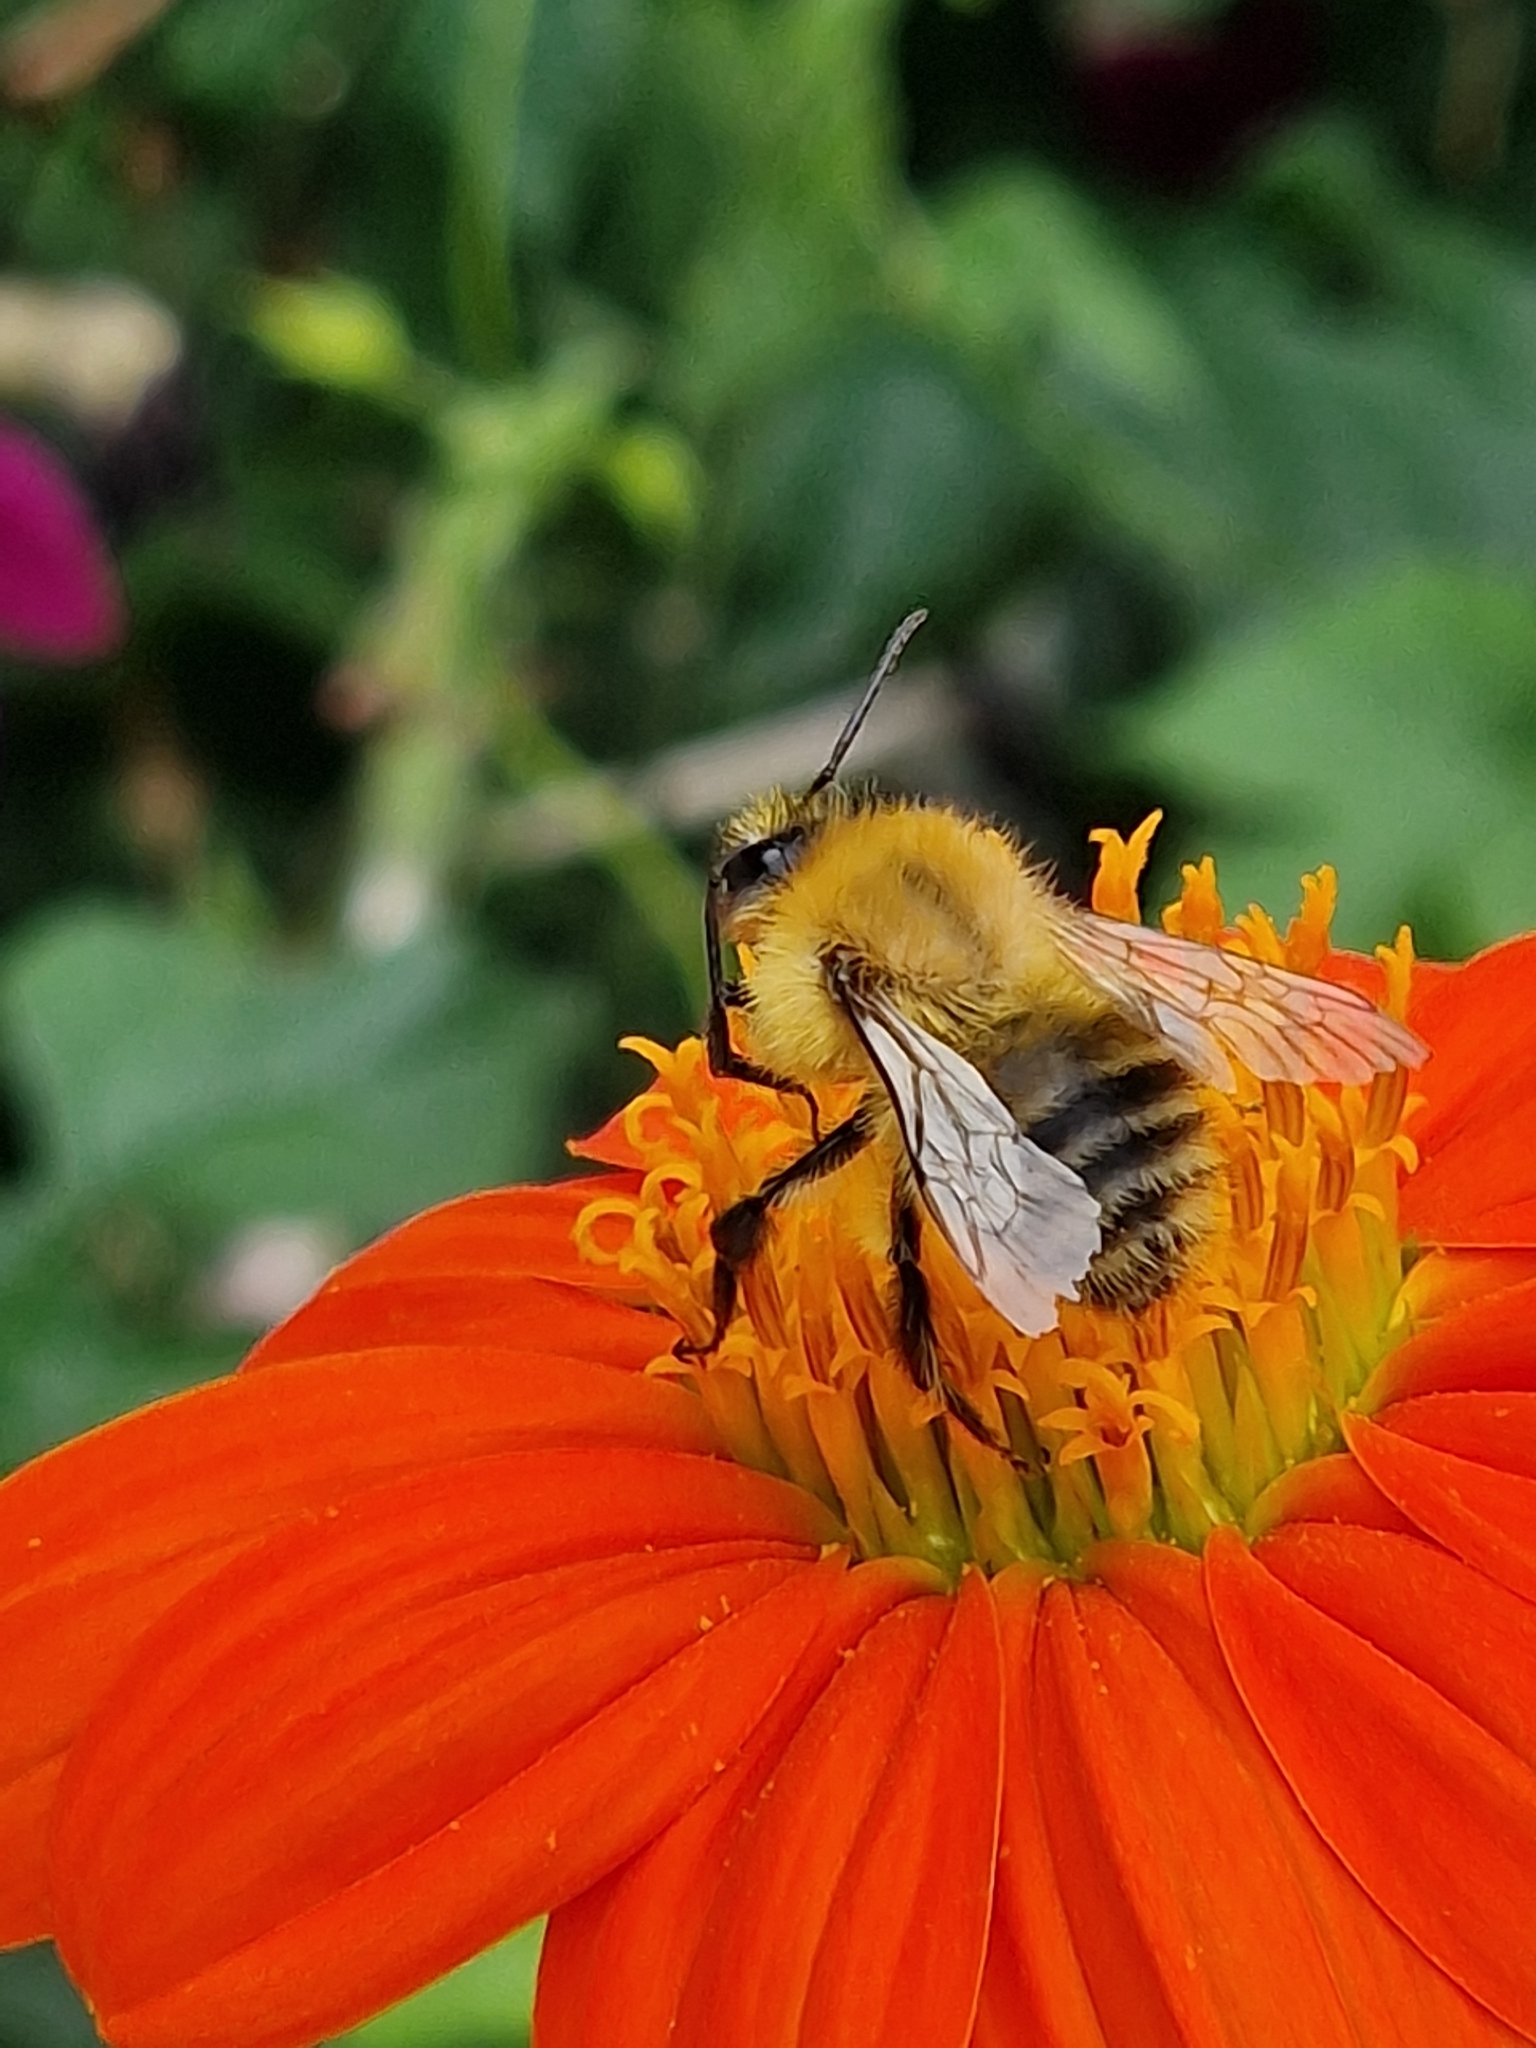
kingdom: Animalia
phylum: Arthropoda
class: Insecta
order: Hymenoptera
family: Apidae
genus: Bombus
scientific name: Bombus pascuorum
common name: Common carder bee
